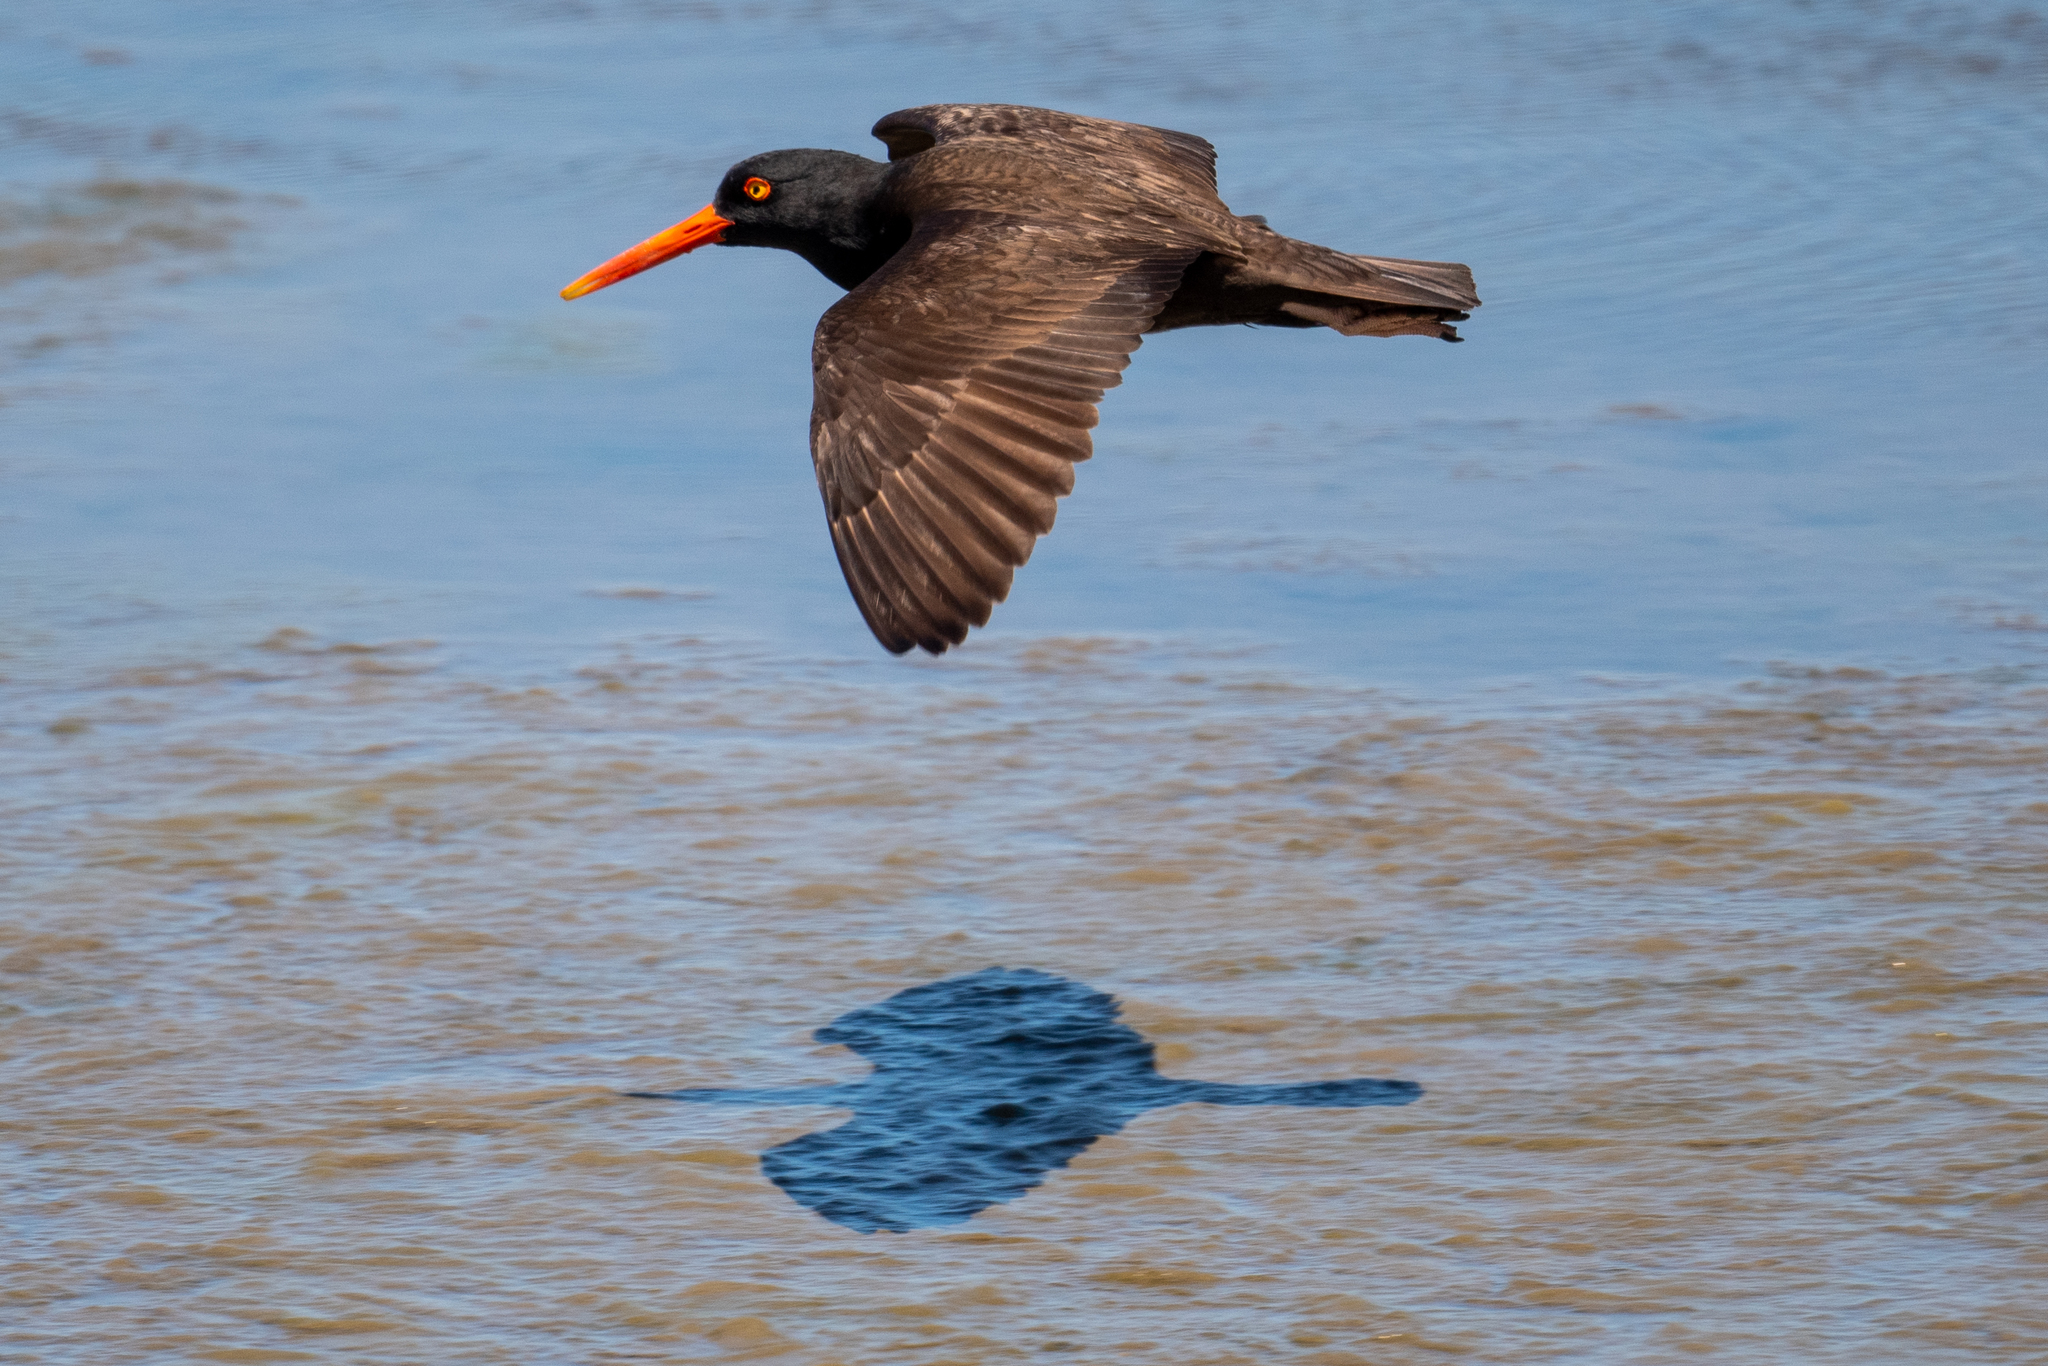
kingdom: Animalia
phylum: Chordata
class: Aves
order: Charadriiformes
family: Haematopodidae
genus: Haematopus
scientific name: Haematopus bachmani
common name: Black oystercatcher
